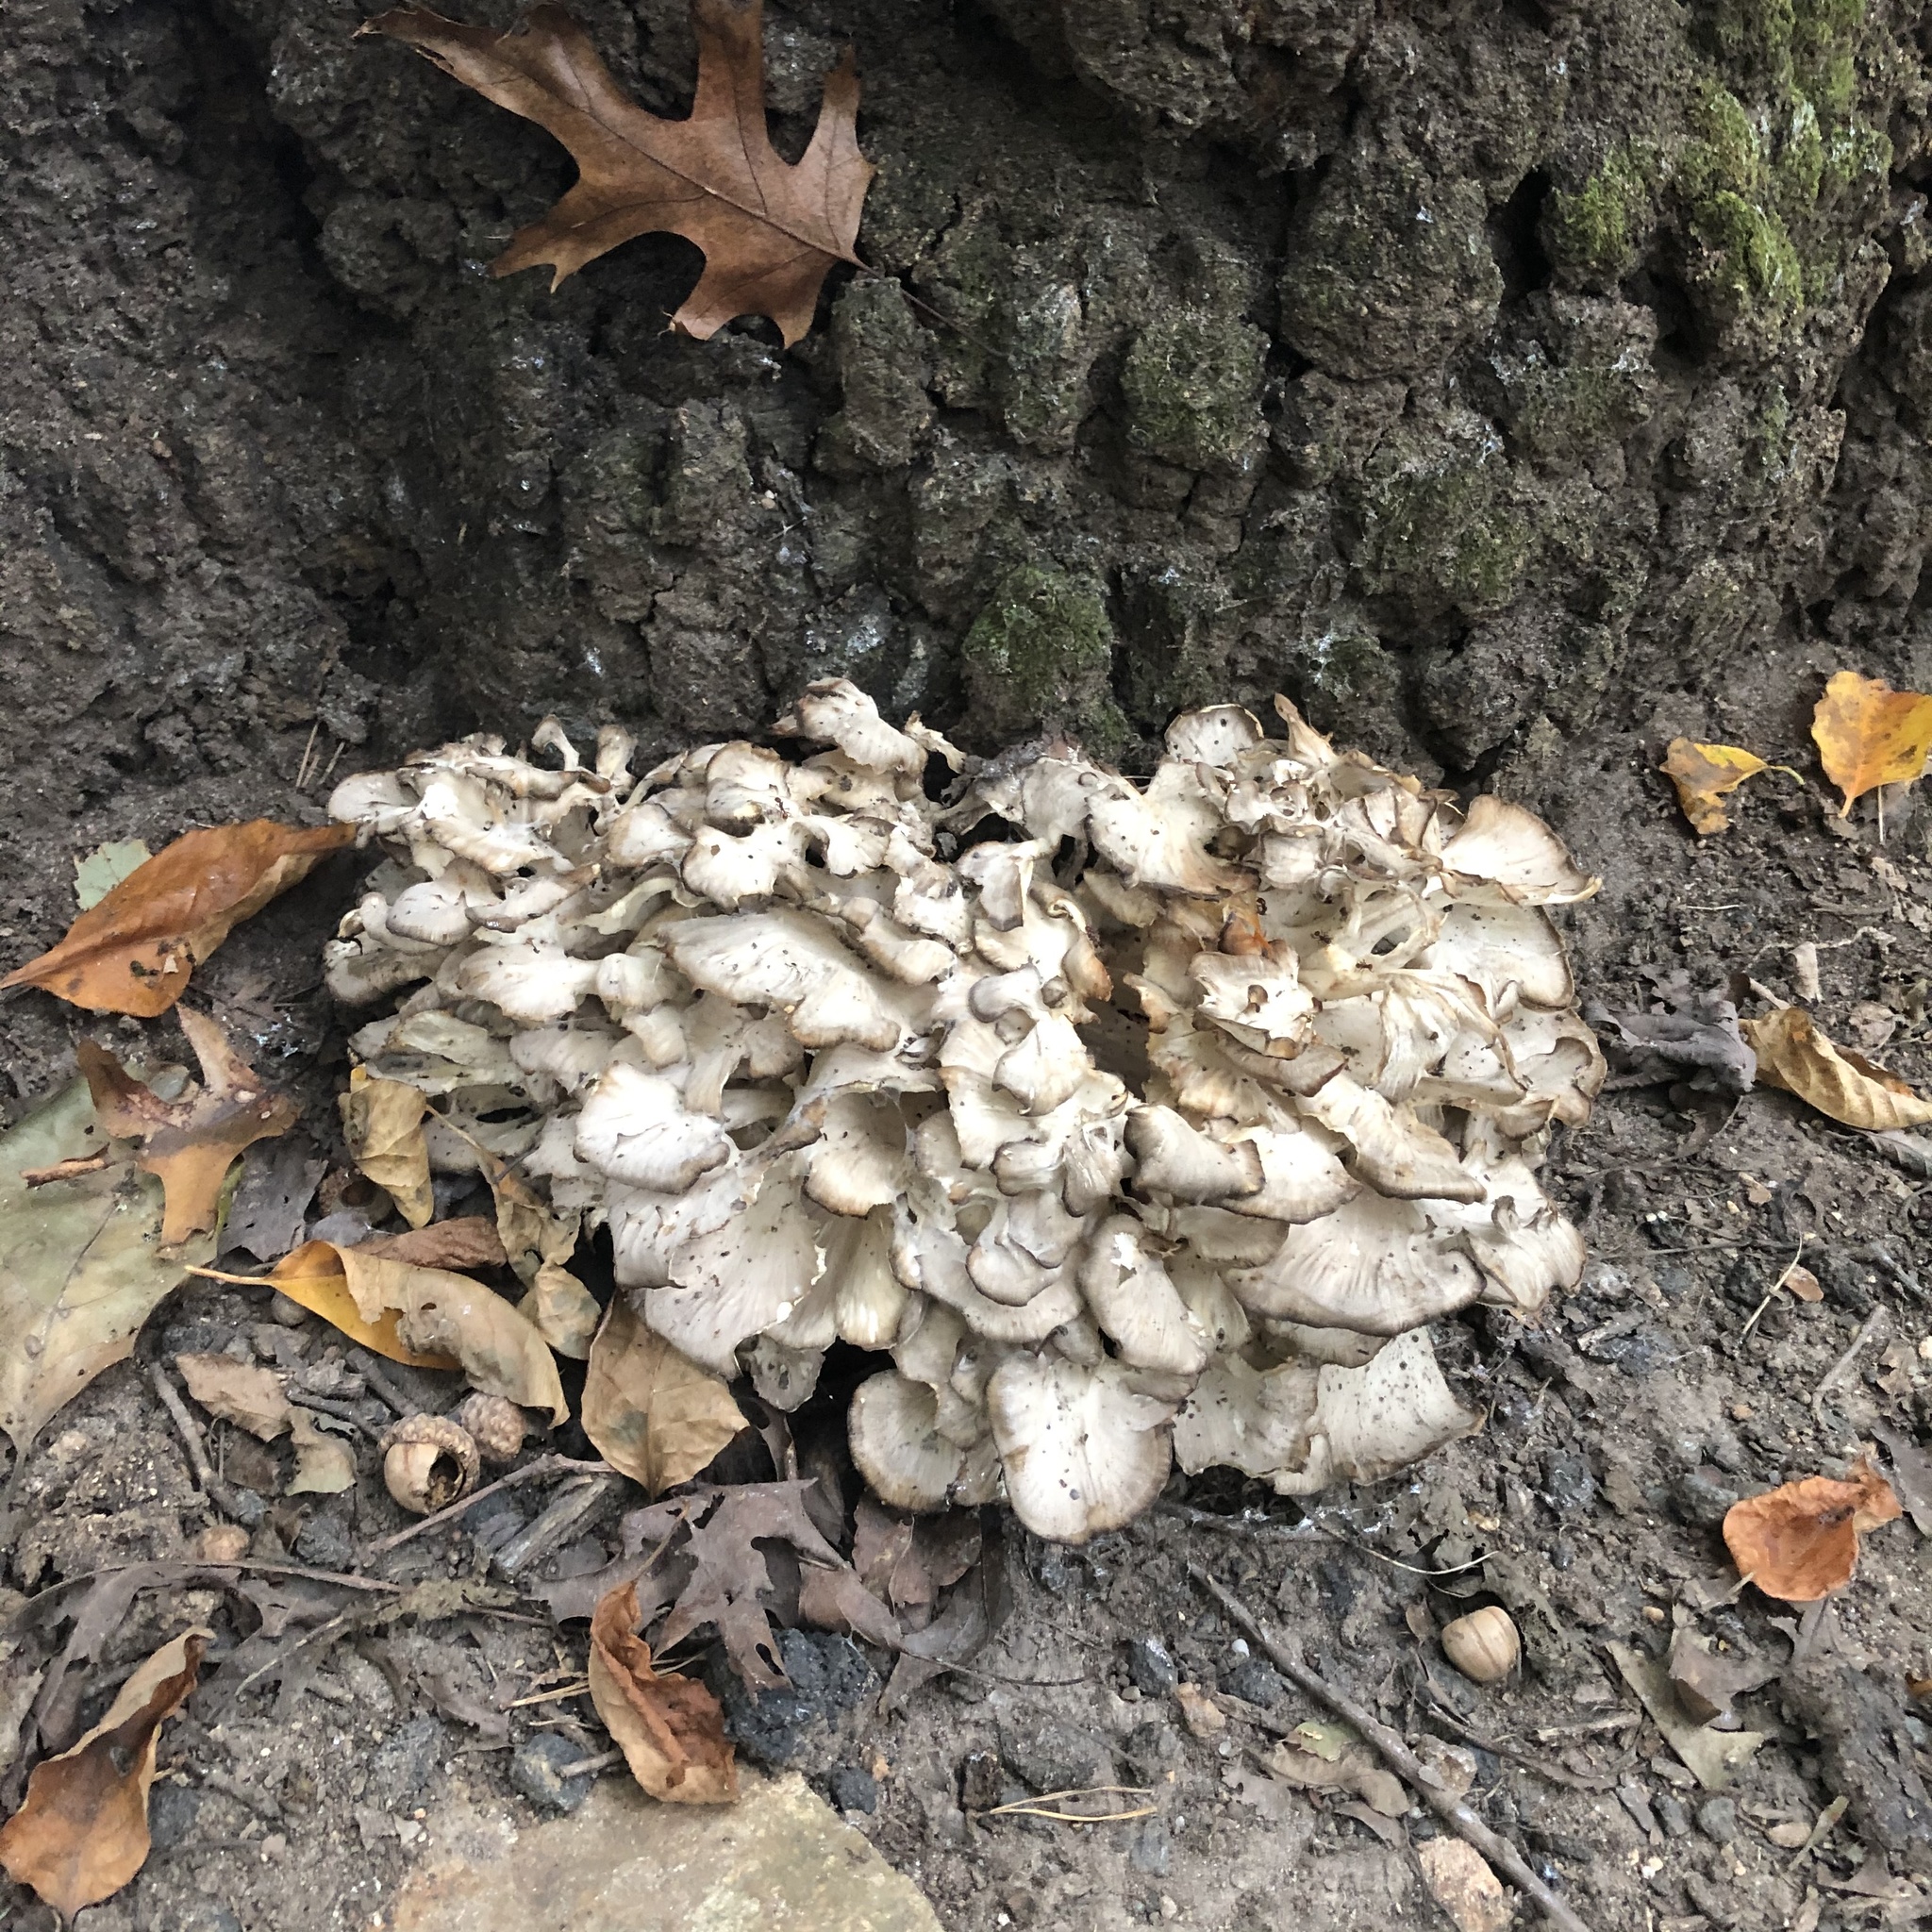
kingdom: Fungi
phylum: Basidiomycota
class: Agaricomycetes
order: Polyporales
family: Grifolaceae
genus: Grifola
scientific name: Grifola frondosa
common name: Hen of the woods
